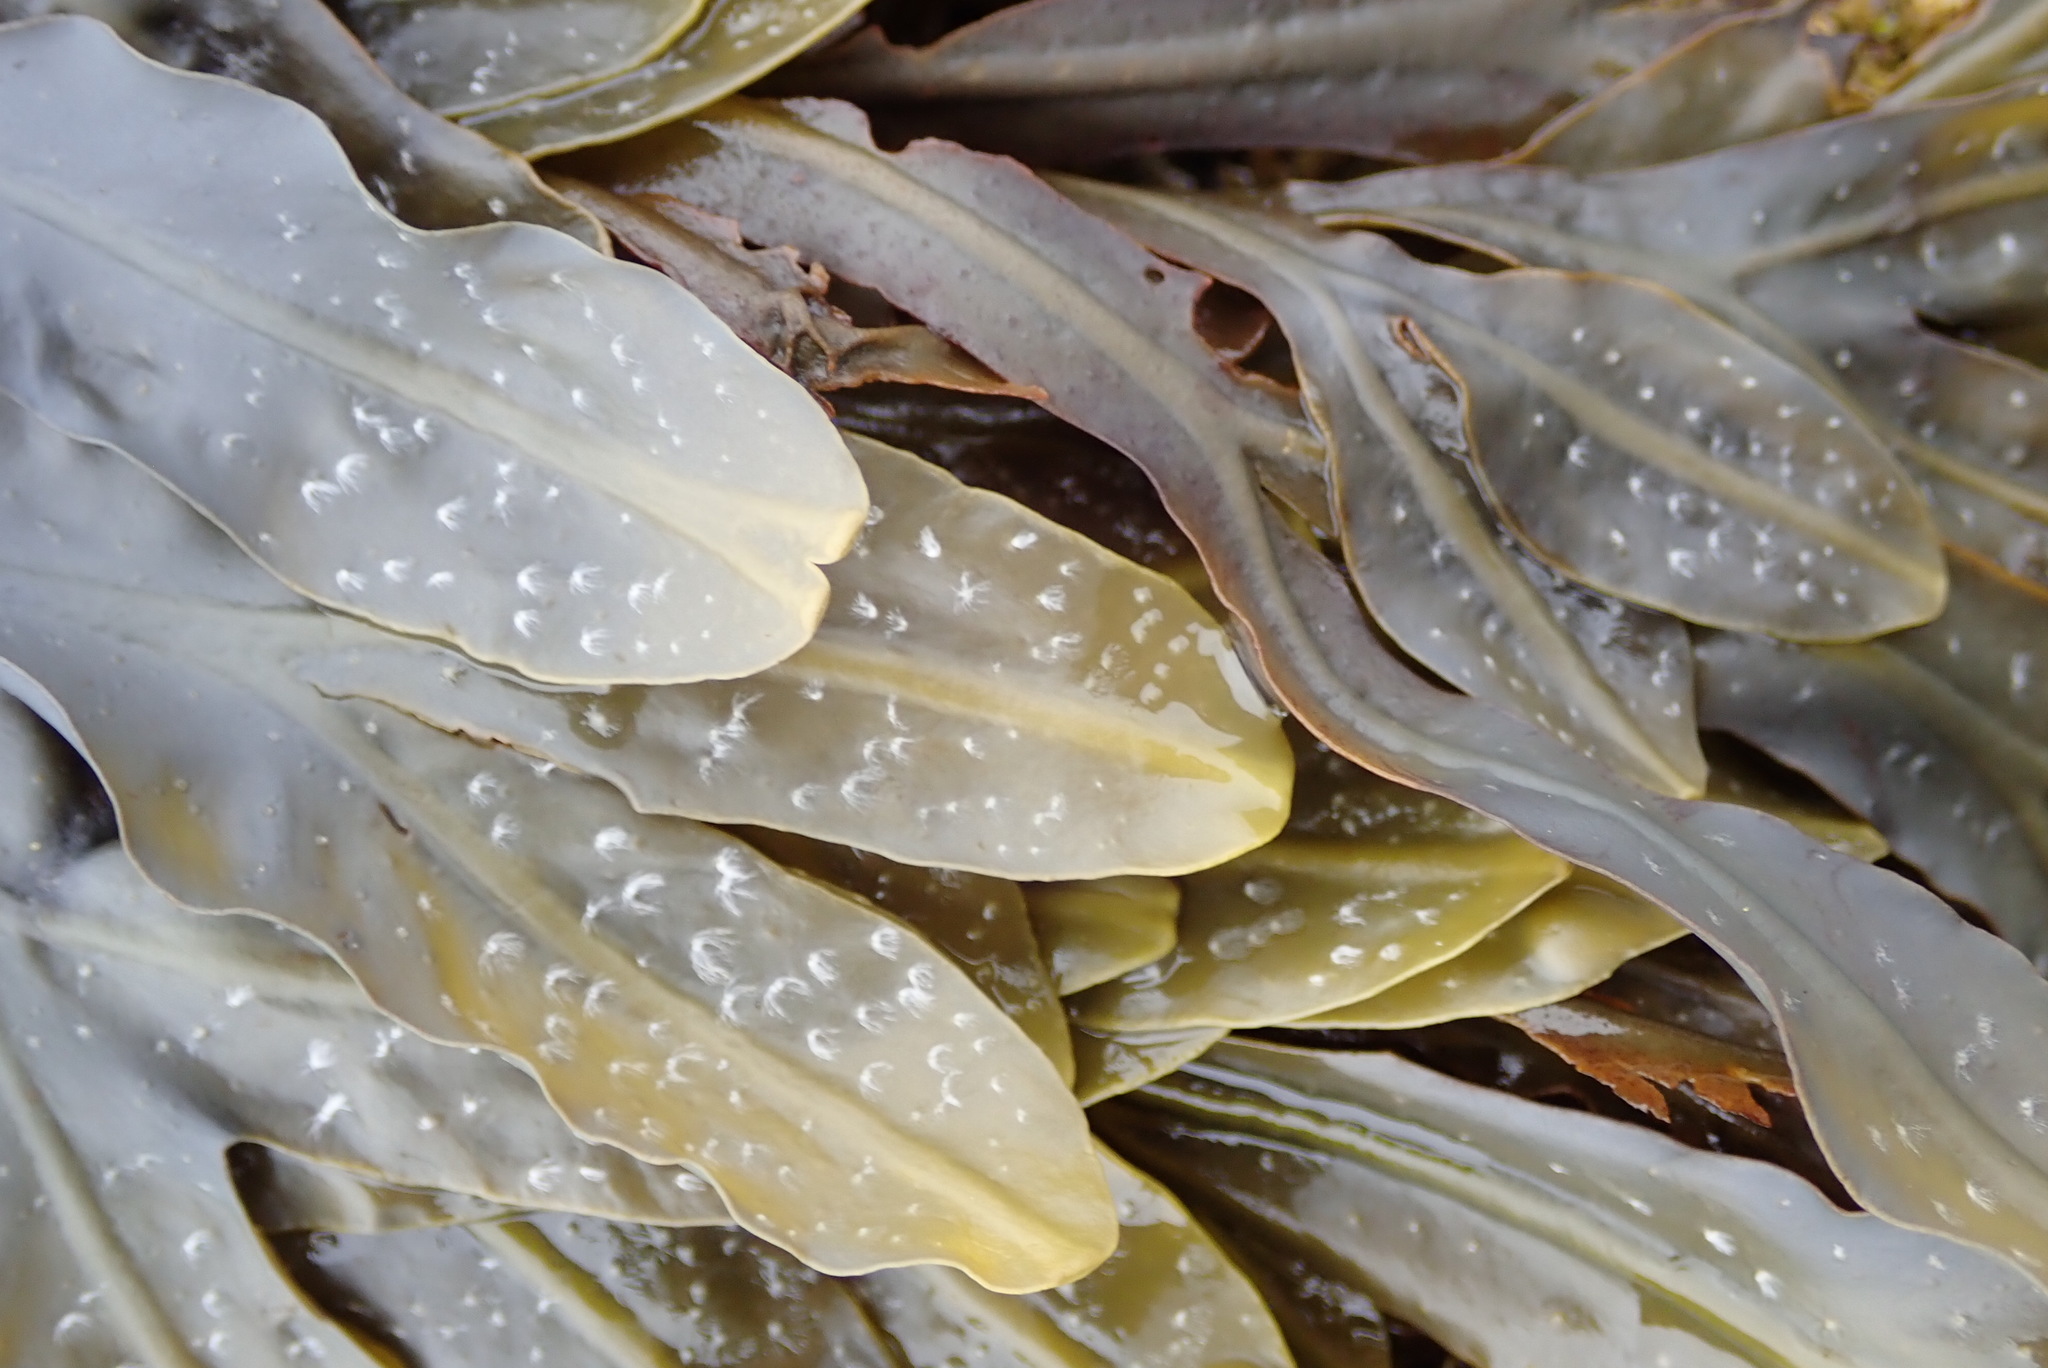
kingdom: Chromista
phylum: Ochrophyta
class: Phaeophyceae
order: Fucales
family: Fucaceae
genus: Fucus
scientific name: Fucus distichus
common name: Rockweed
